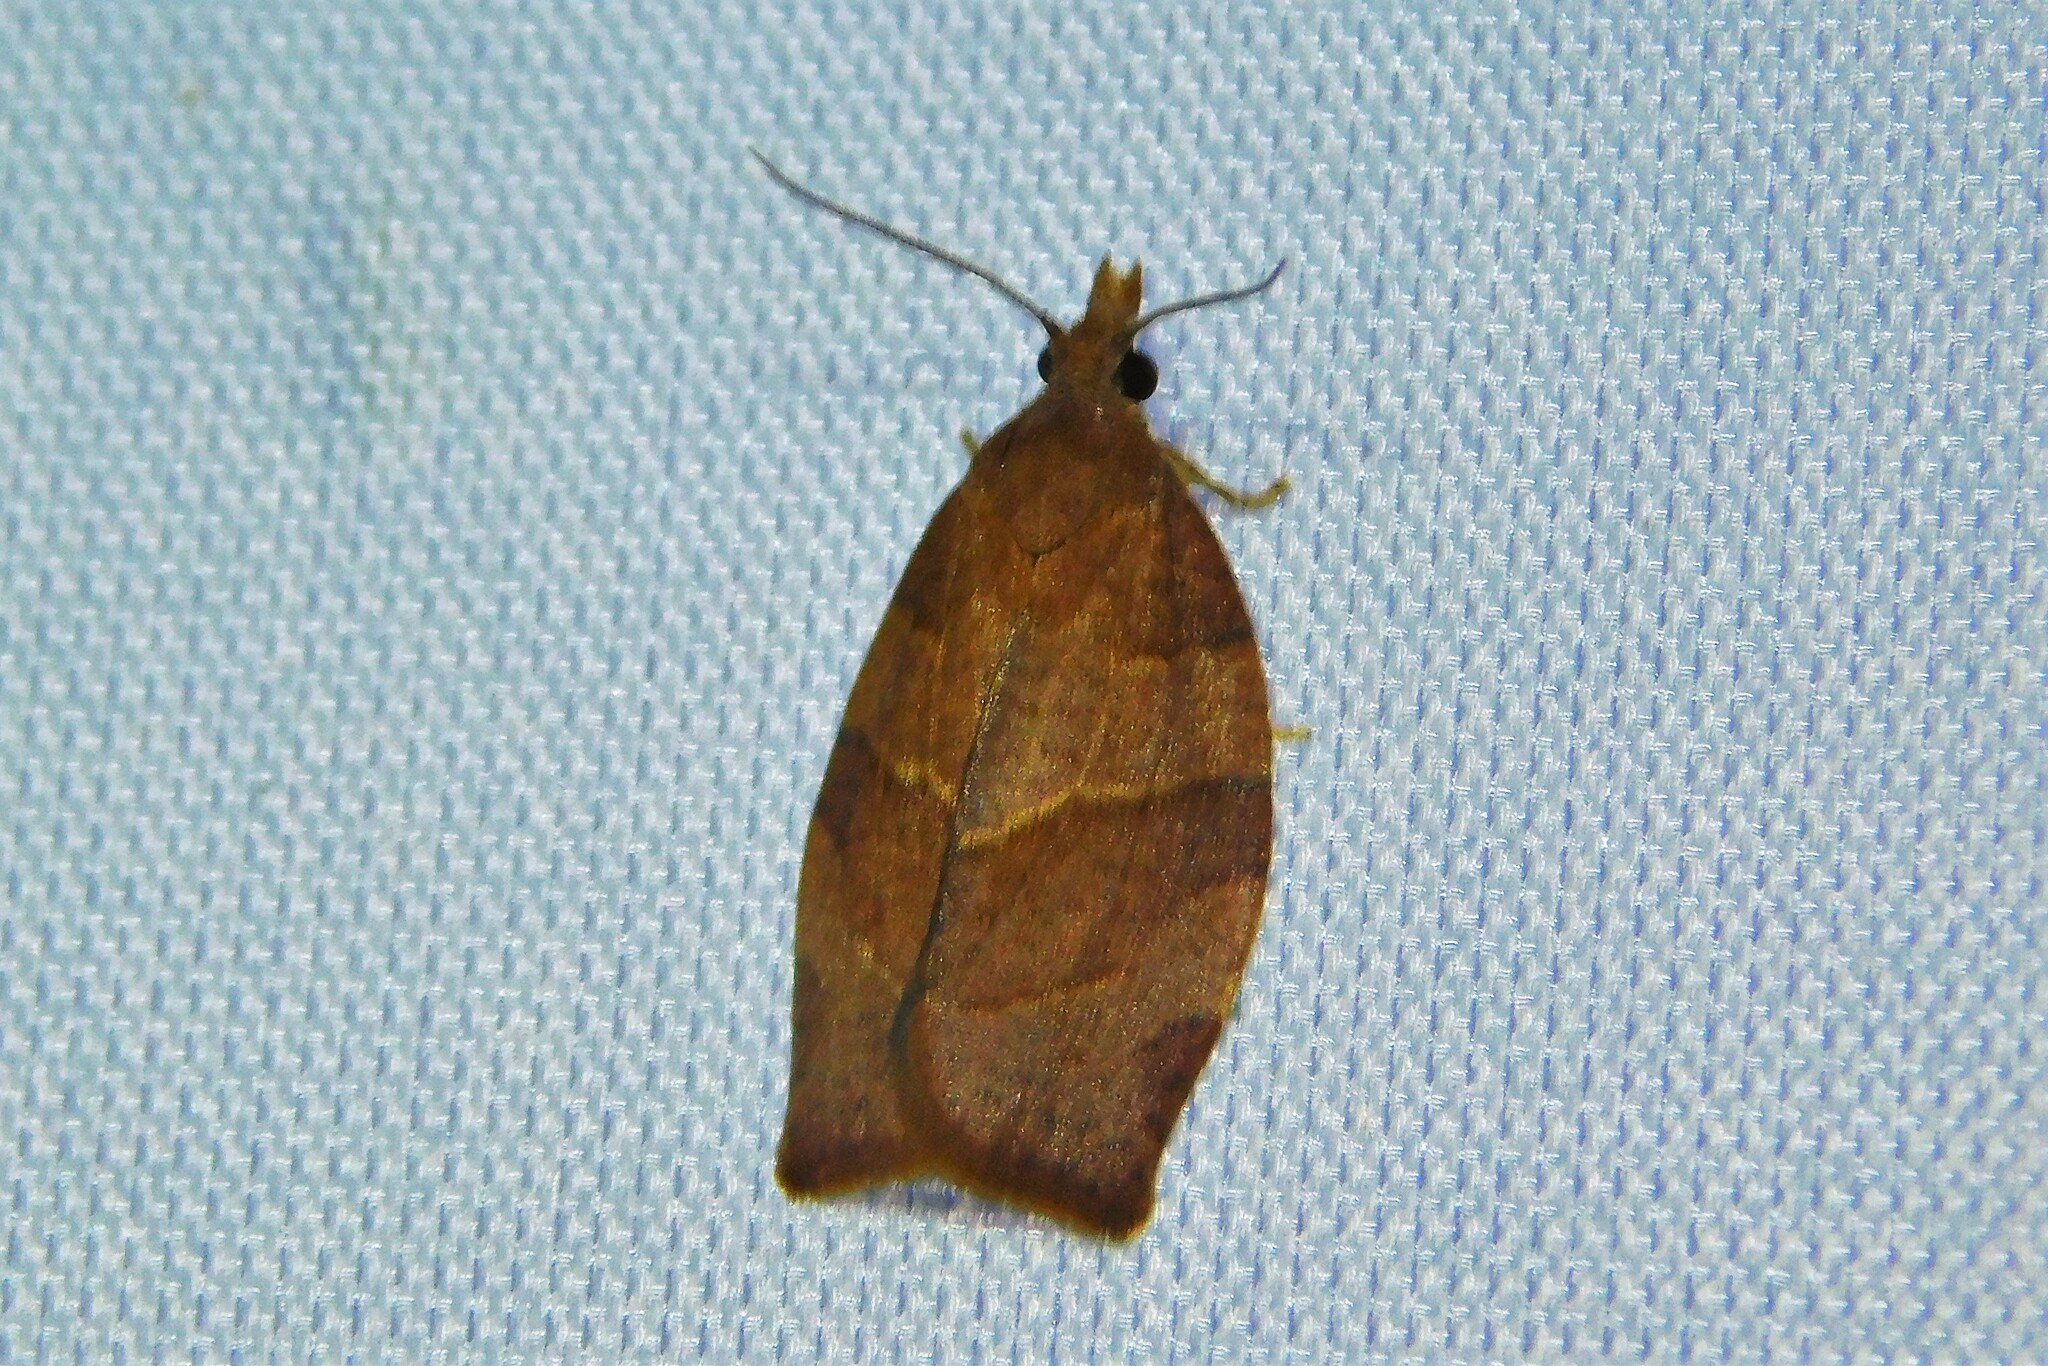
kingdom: Animalia
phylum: Arthropoda
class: Insecta
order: Lepidoptera
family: Tortricidae
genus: Pandemis
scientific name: Pandemis heparana
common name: Dark fruit-tree tortrix
